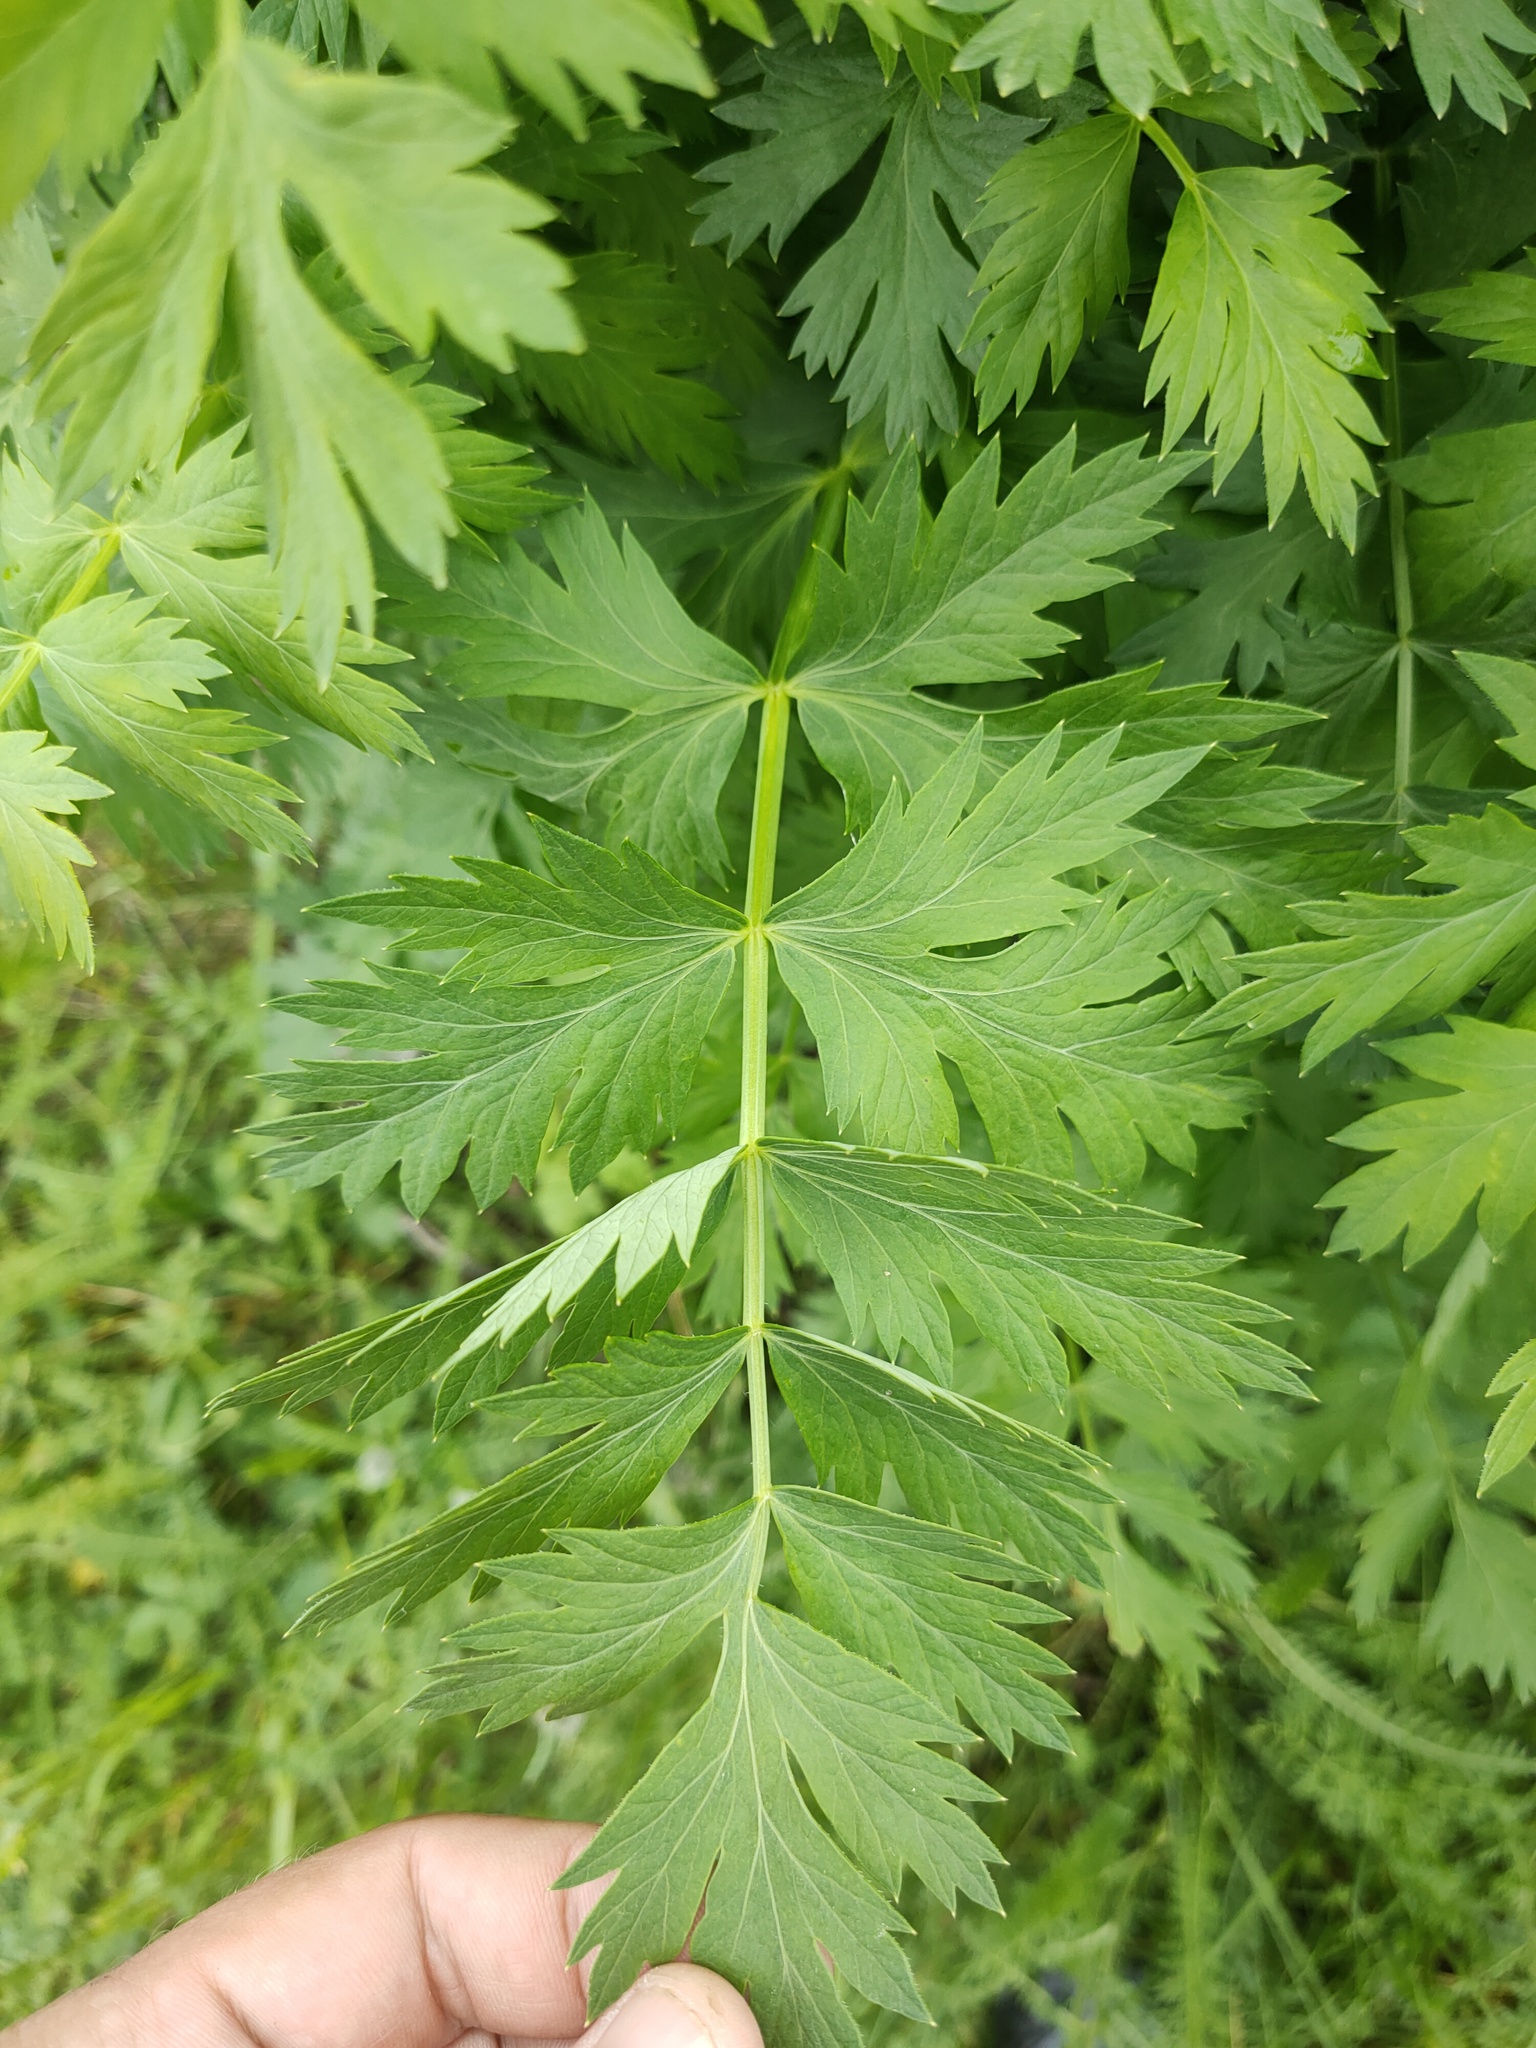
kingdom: Plantae
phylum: Tracheophyta
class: Magnoliopsida
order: Apiales
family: Apiaceae
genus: Seseli
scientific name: Seseli libanotis
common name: Mooncarrot
